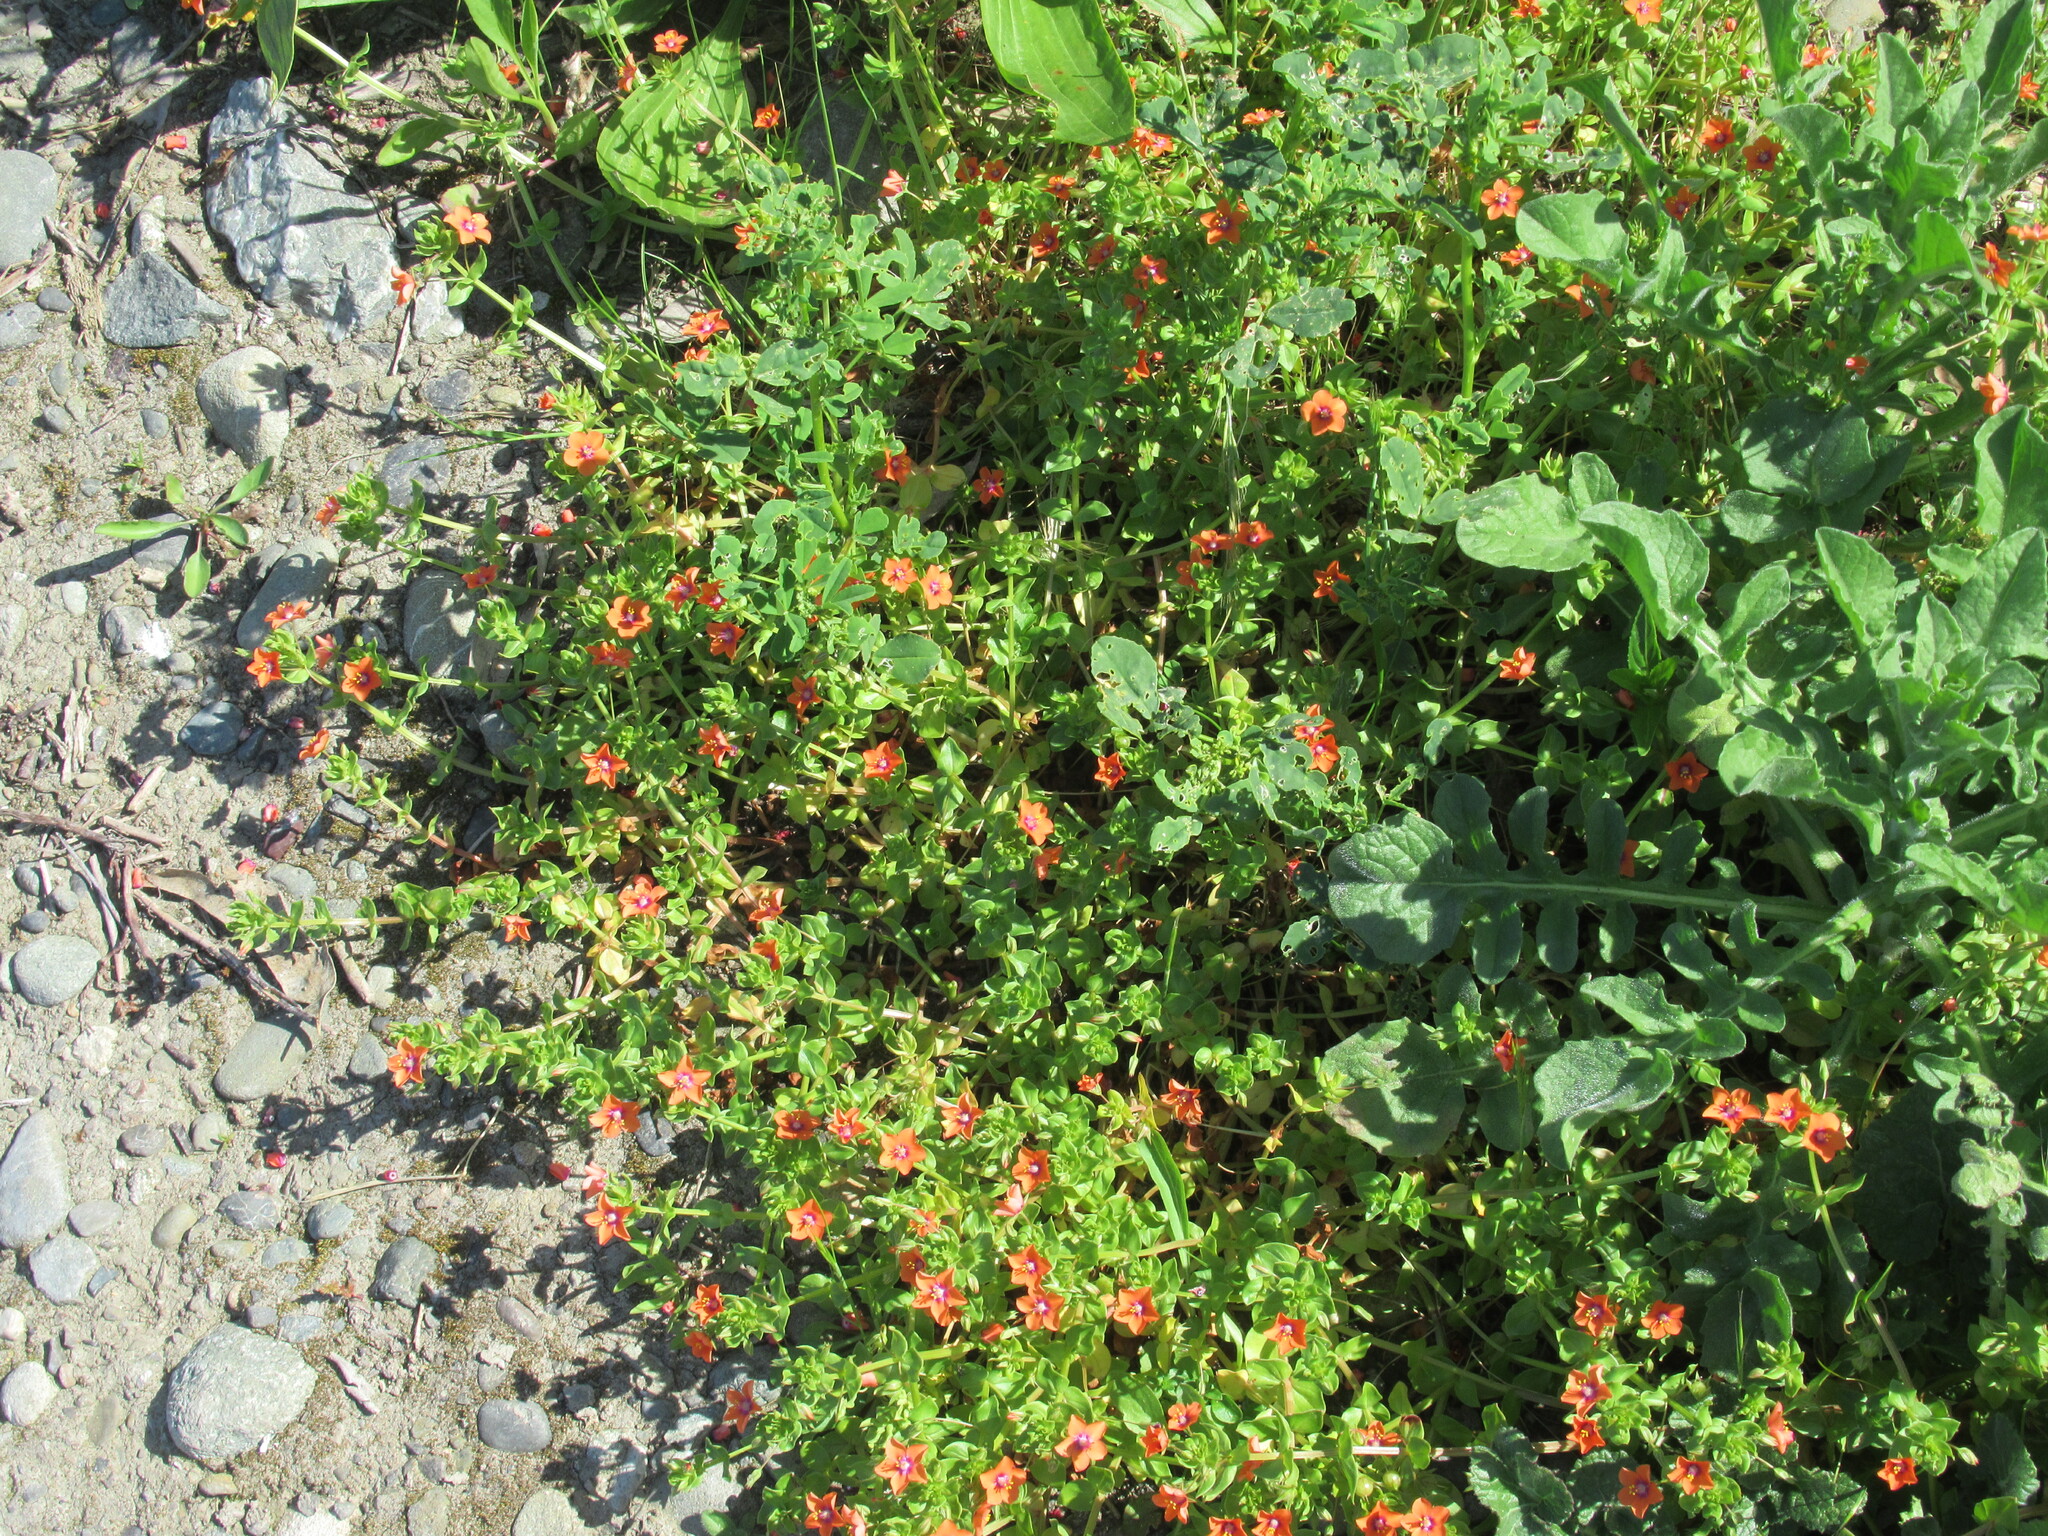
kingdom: Plantae
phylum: Tracheophyta
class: Magnoliopsida
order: Ericales
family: Primulaceae
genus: Lysimachia
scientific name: Lysimachia arvensis
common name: Scarlet pimpernel
